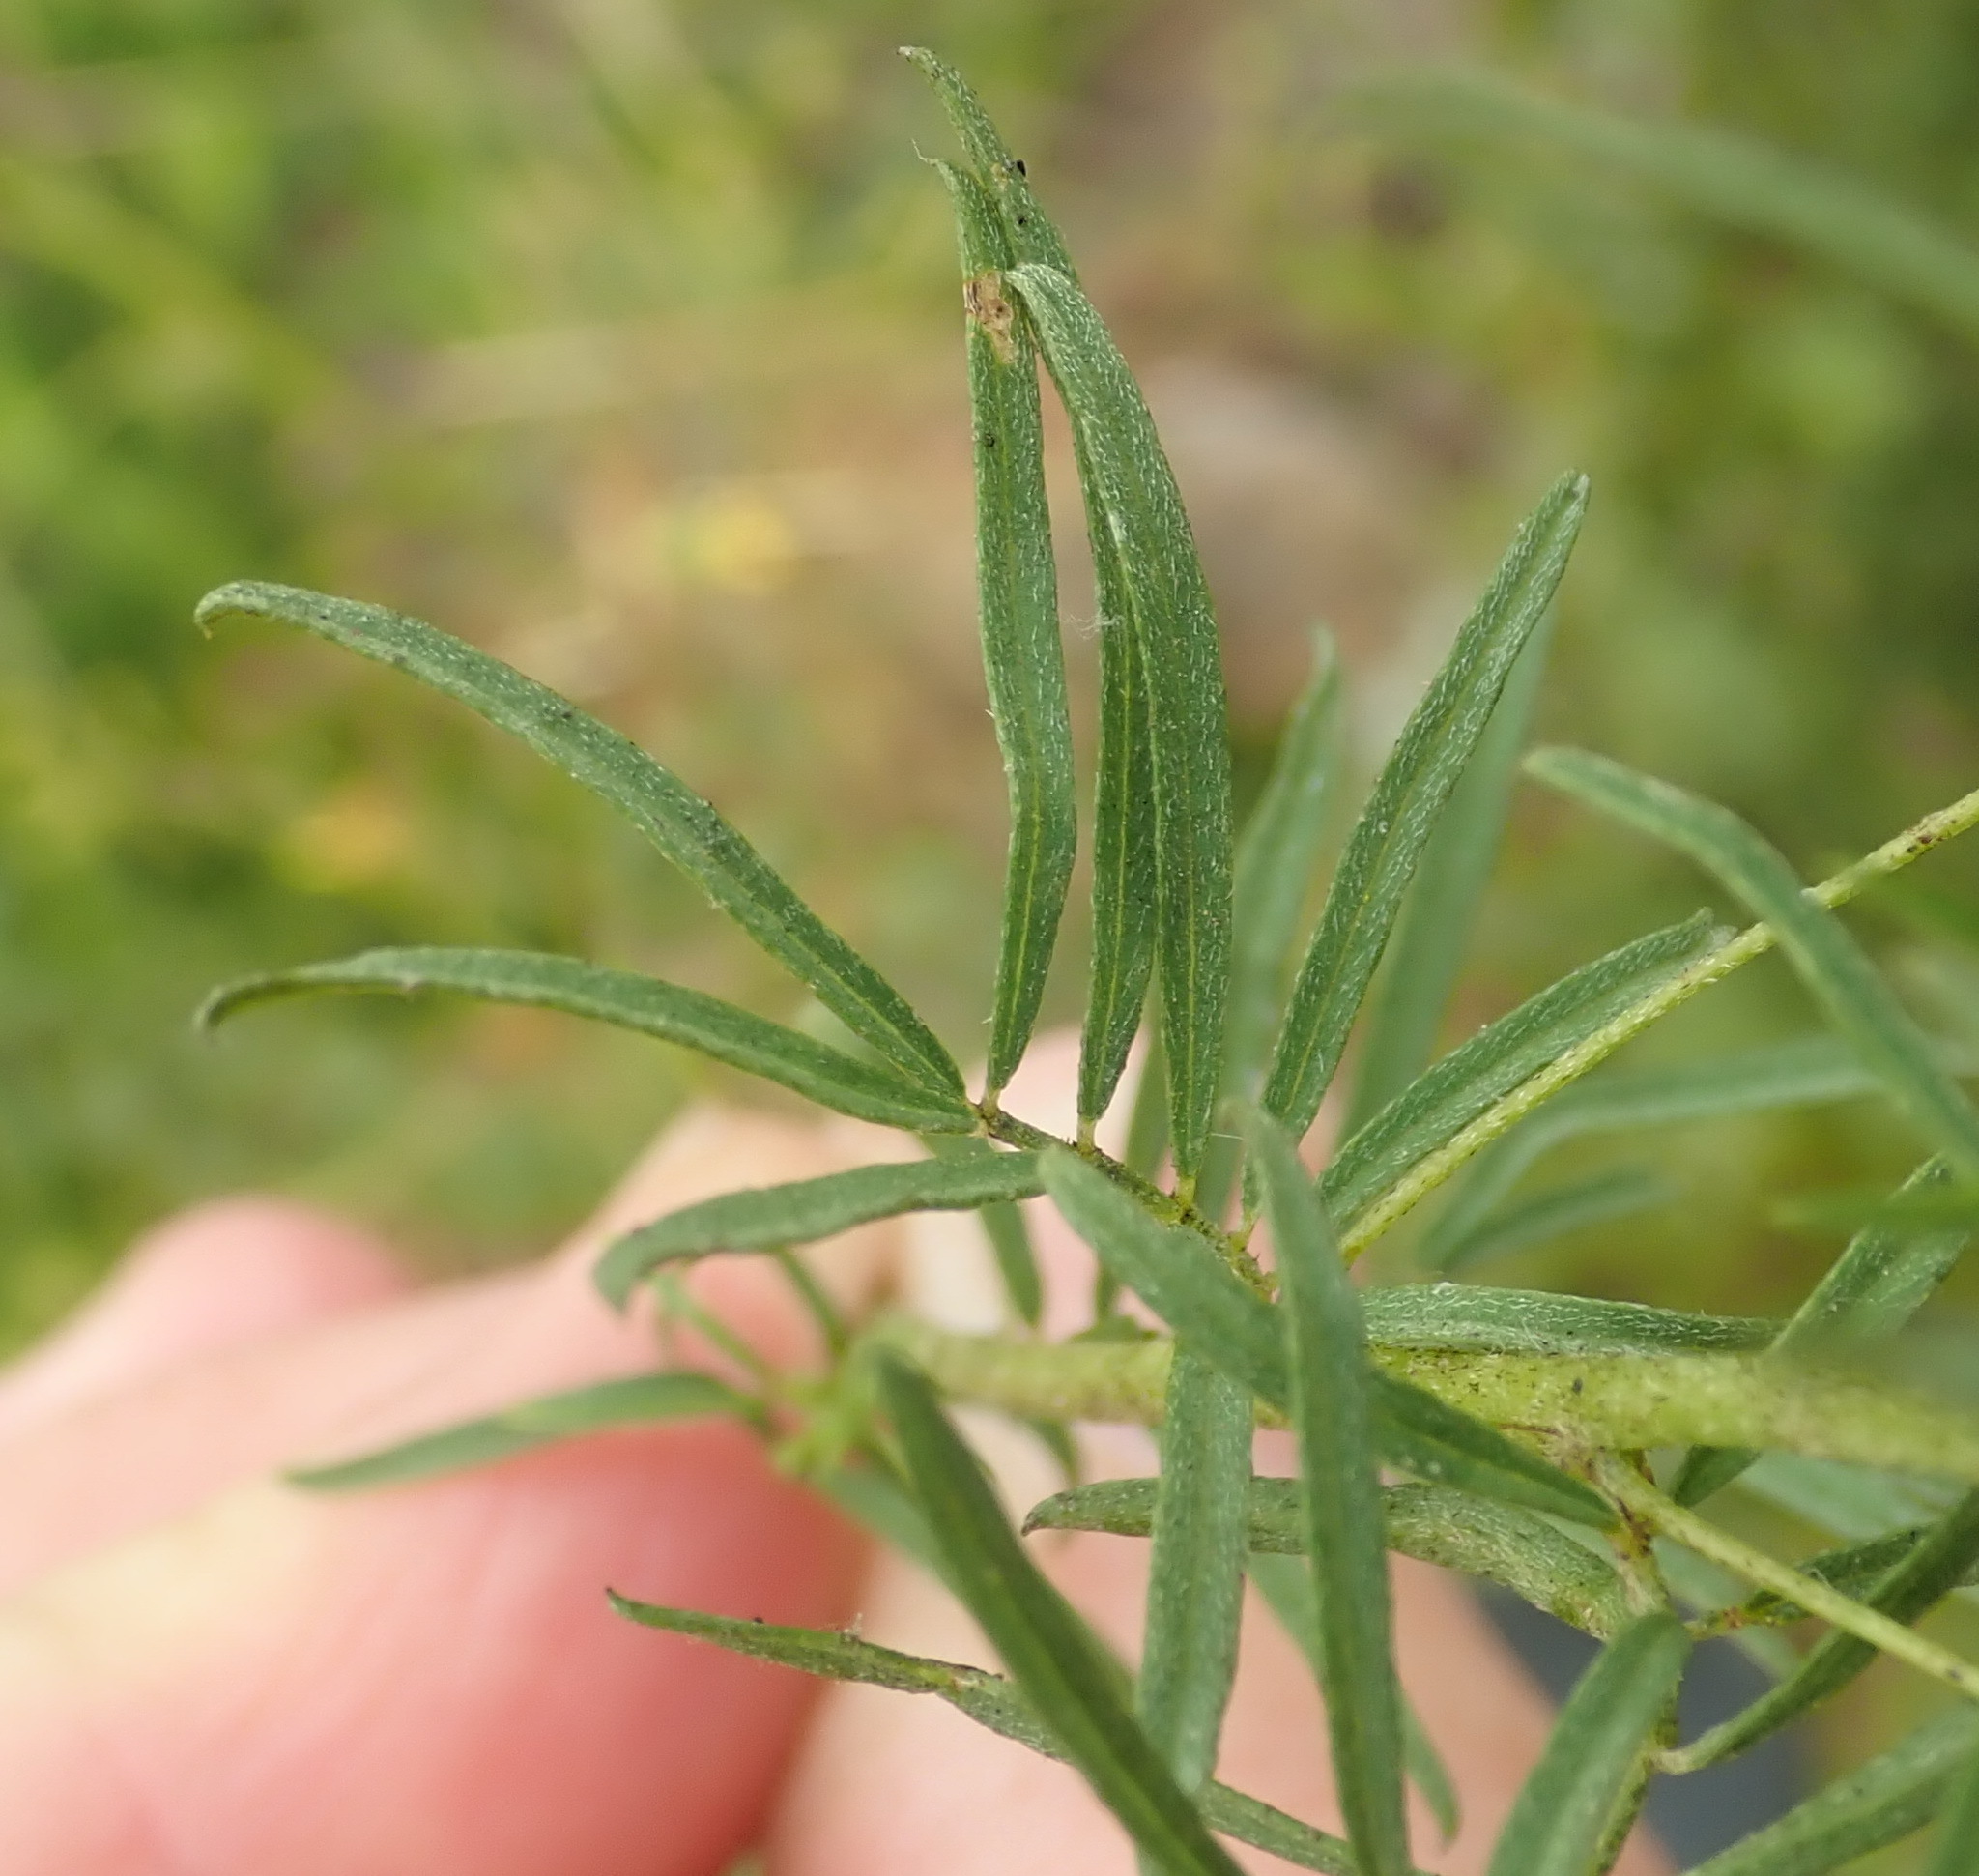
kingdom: Plantae
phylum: Tracheophyta
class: Magnoliopsida
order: Fabales
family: Fabaceae
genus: Indigofera
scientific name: Indigofera verrucosa
